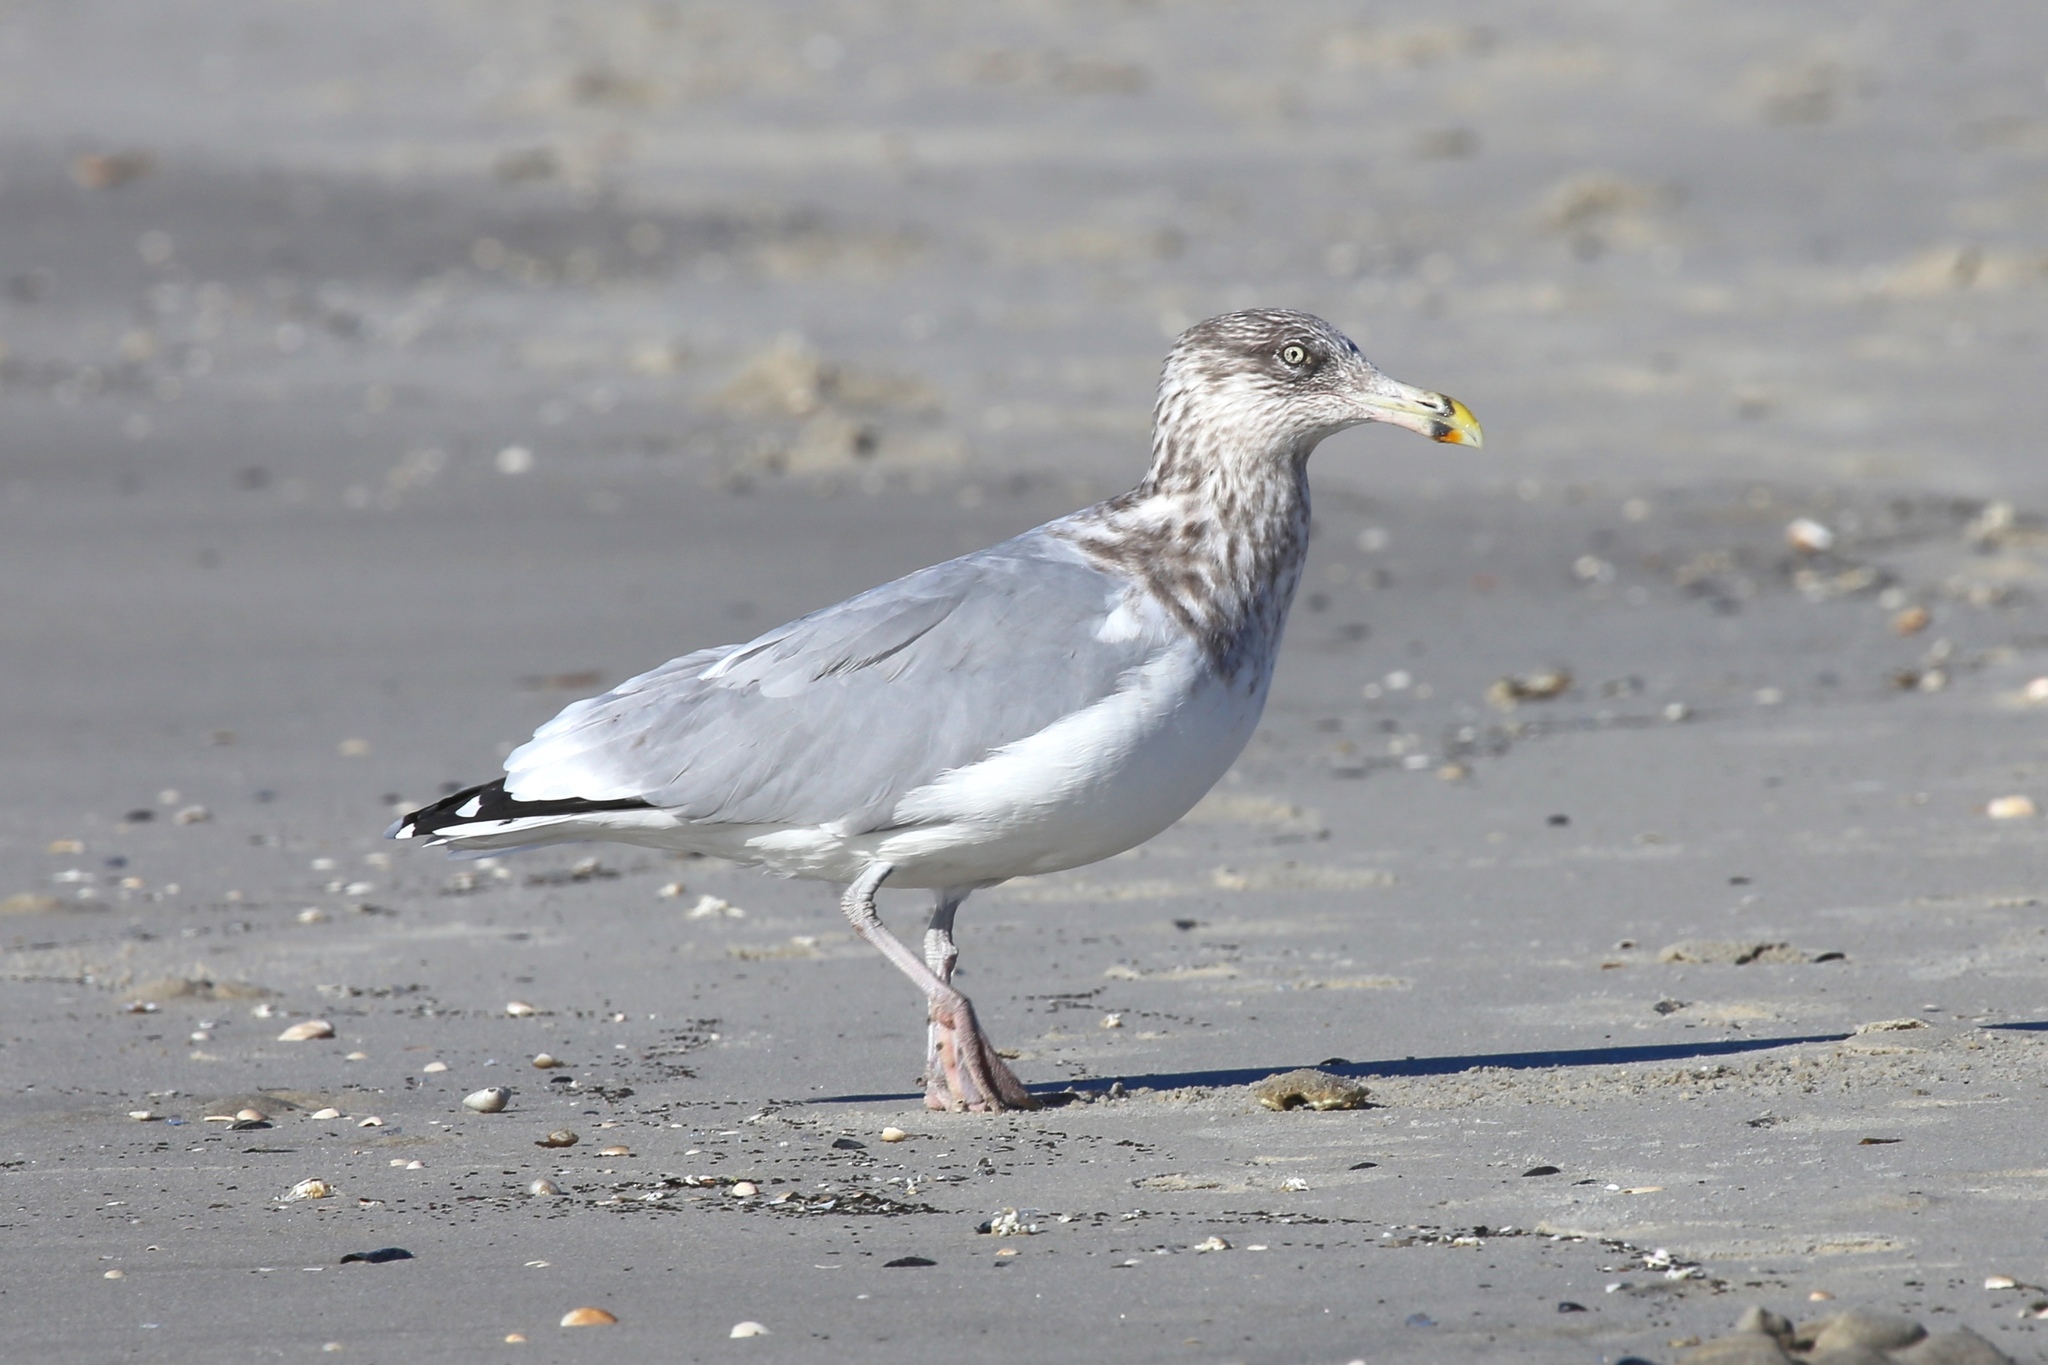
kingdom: Animalia
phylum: Chordata
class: Aves
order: Charadriiformes
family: Laridae
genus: Larus
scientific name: Larus argentatus
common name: Herring gull
